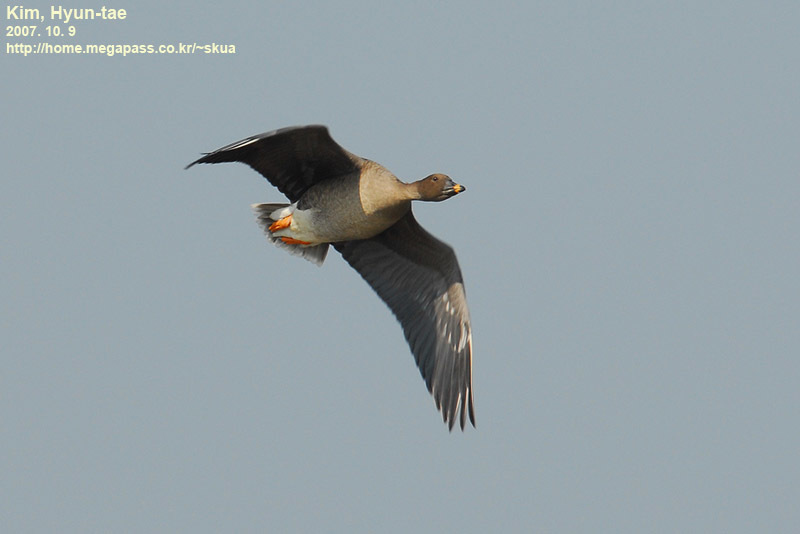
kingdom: Animalia
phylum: Chordata
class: Aves
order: Anseriformes
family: Anatidae
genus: Anser
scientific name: Anser fabalis
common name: Bean goose
